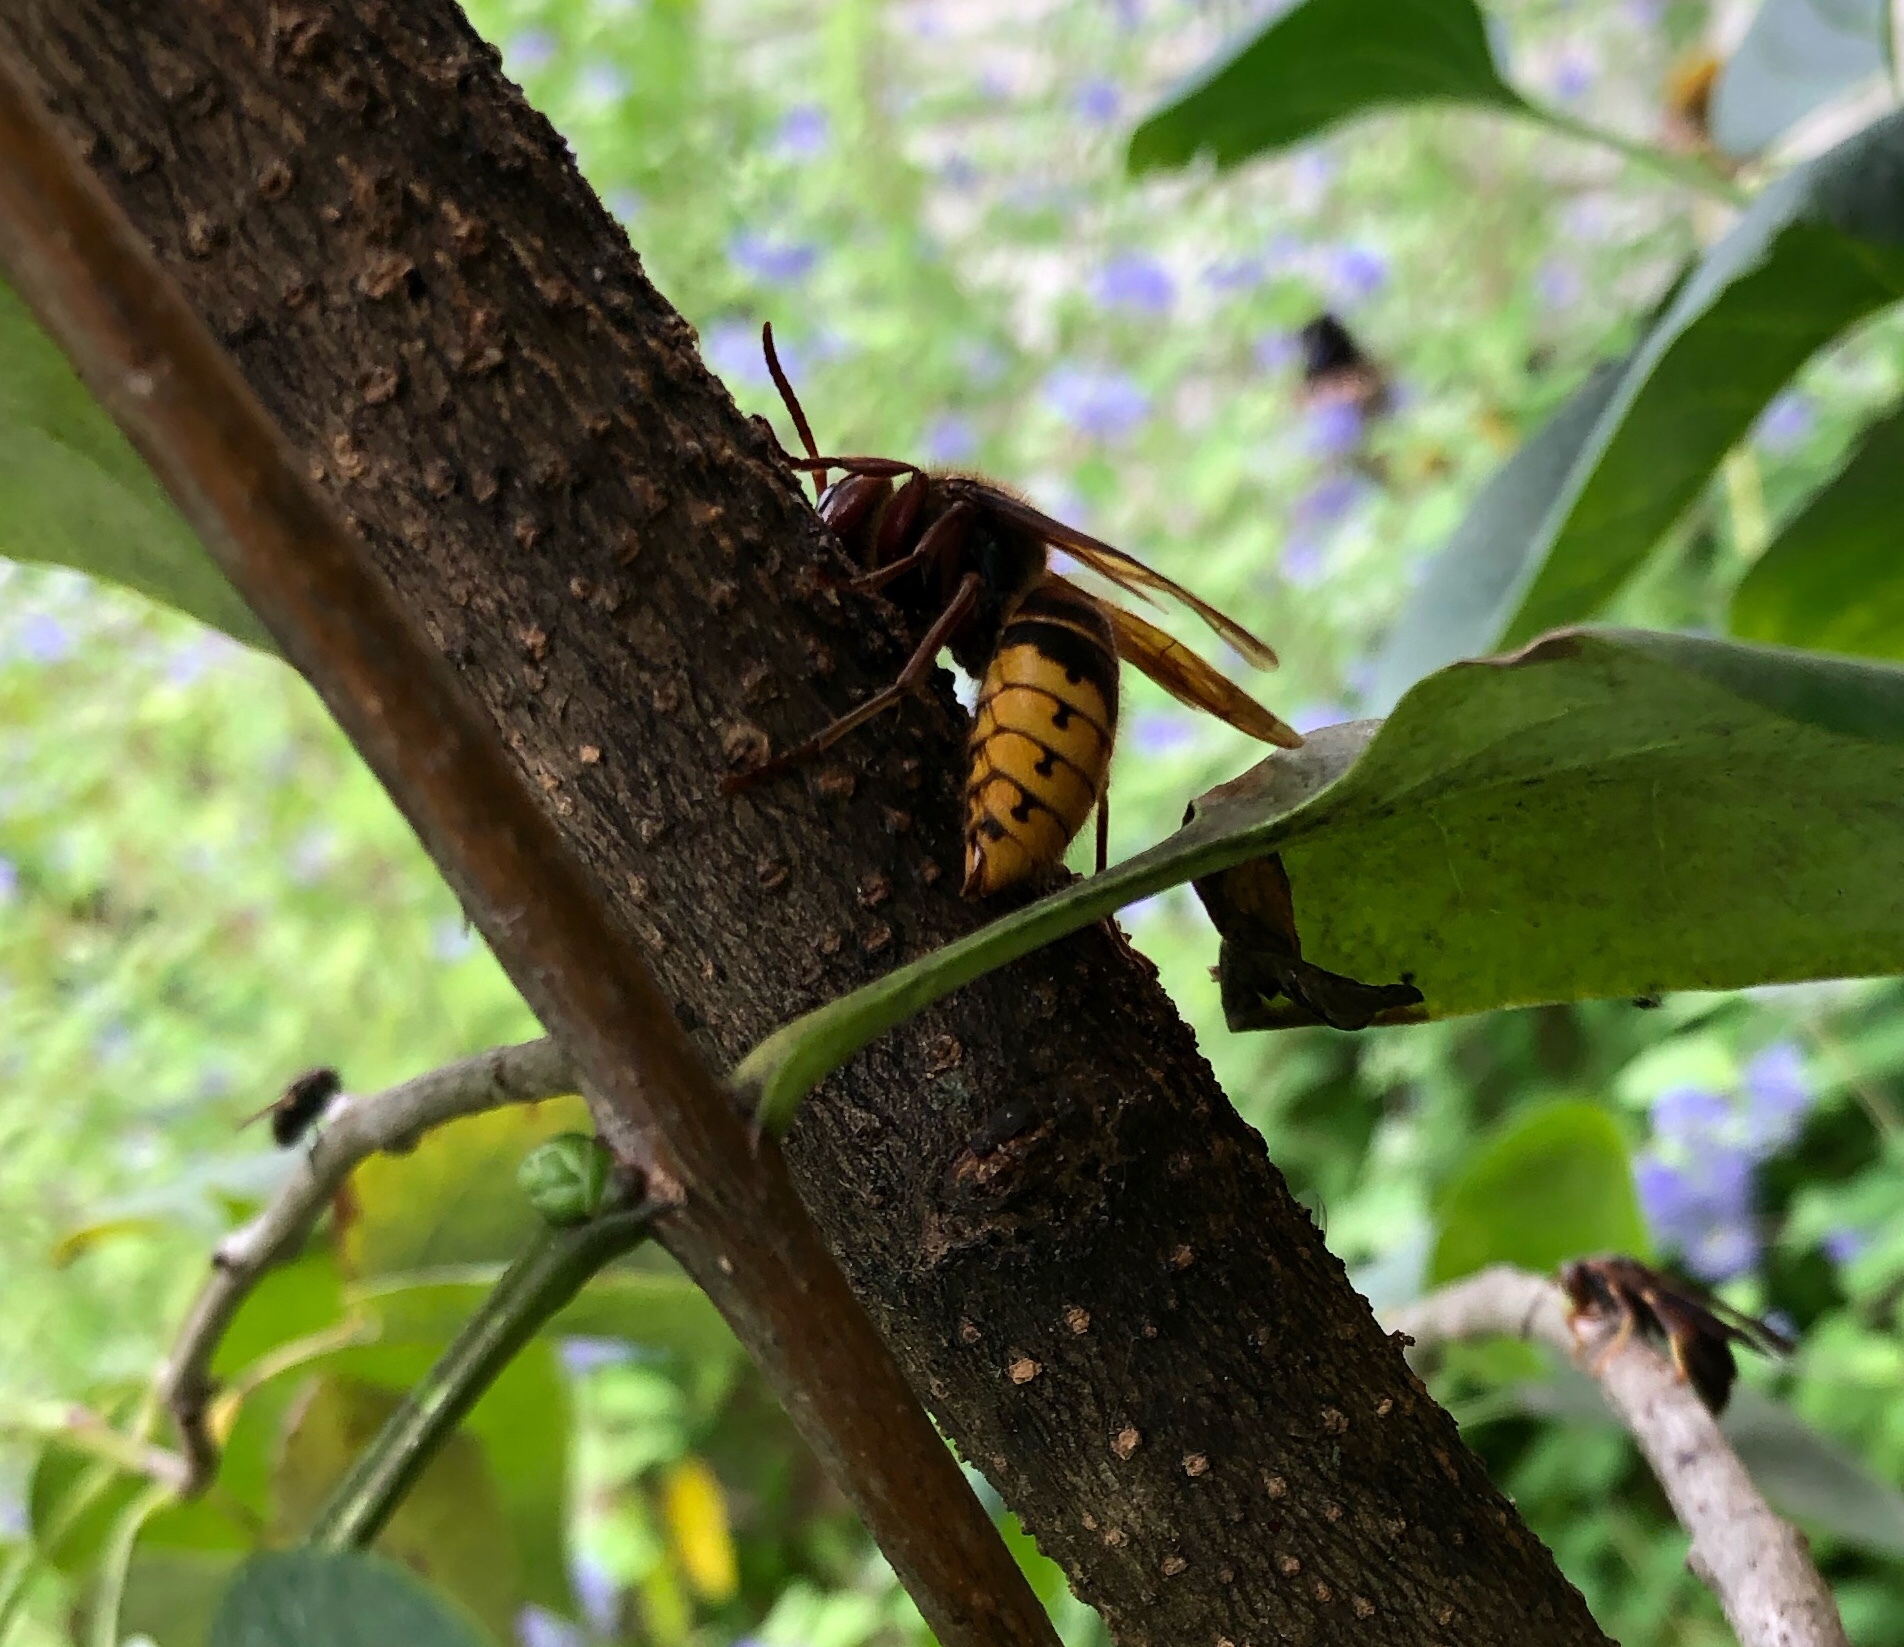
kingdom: Animalia
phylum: Arthropoda
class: Insecta
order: Hymenoptera
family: Vespidae
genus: Vespa
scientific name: Vespa crabro
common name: Hornet
